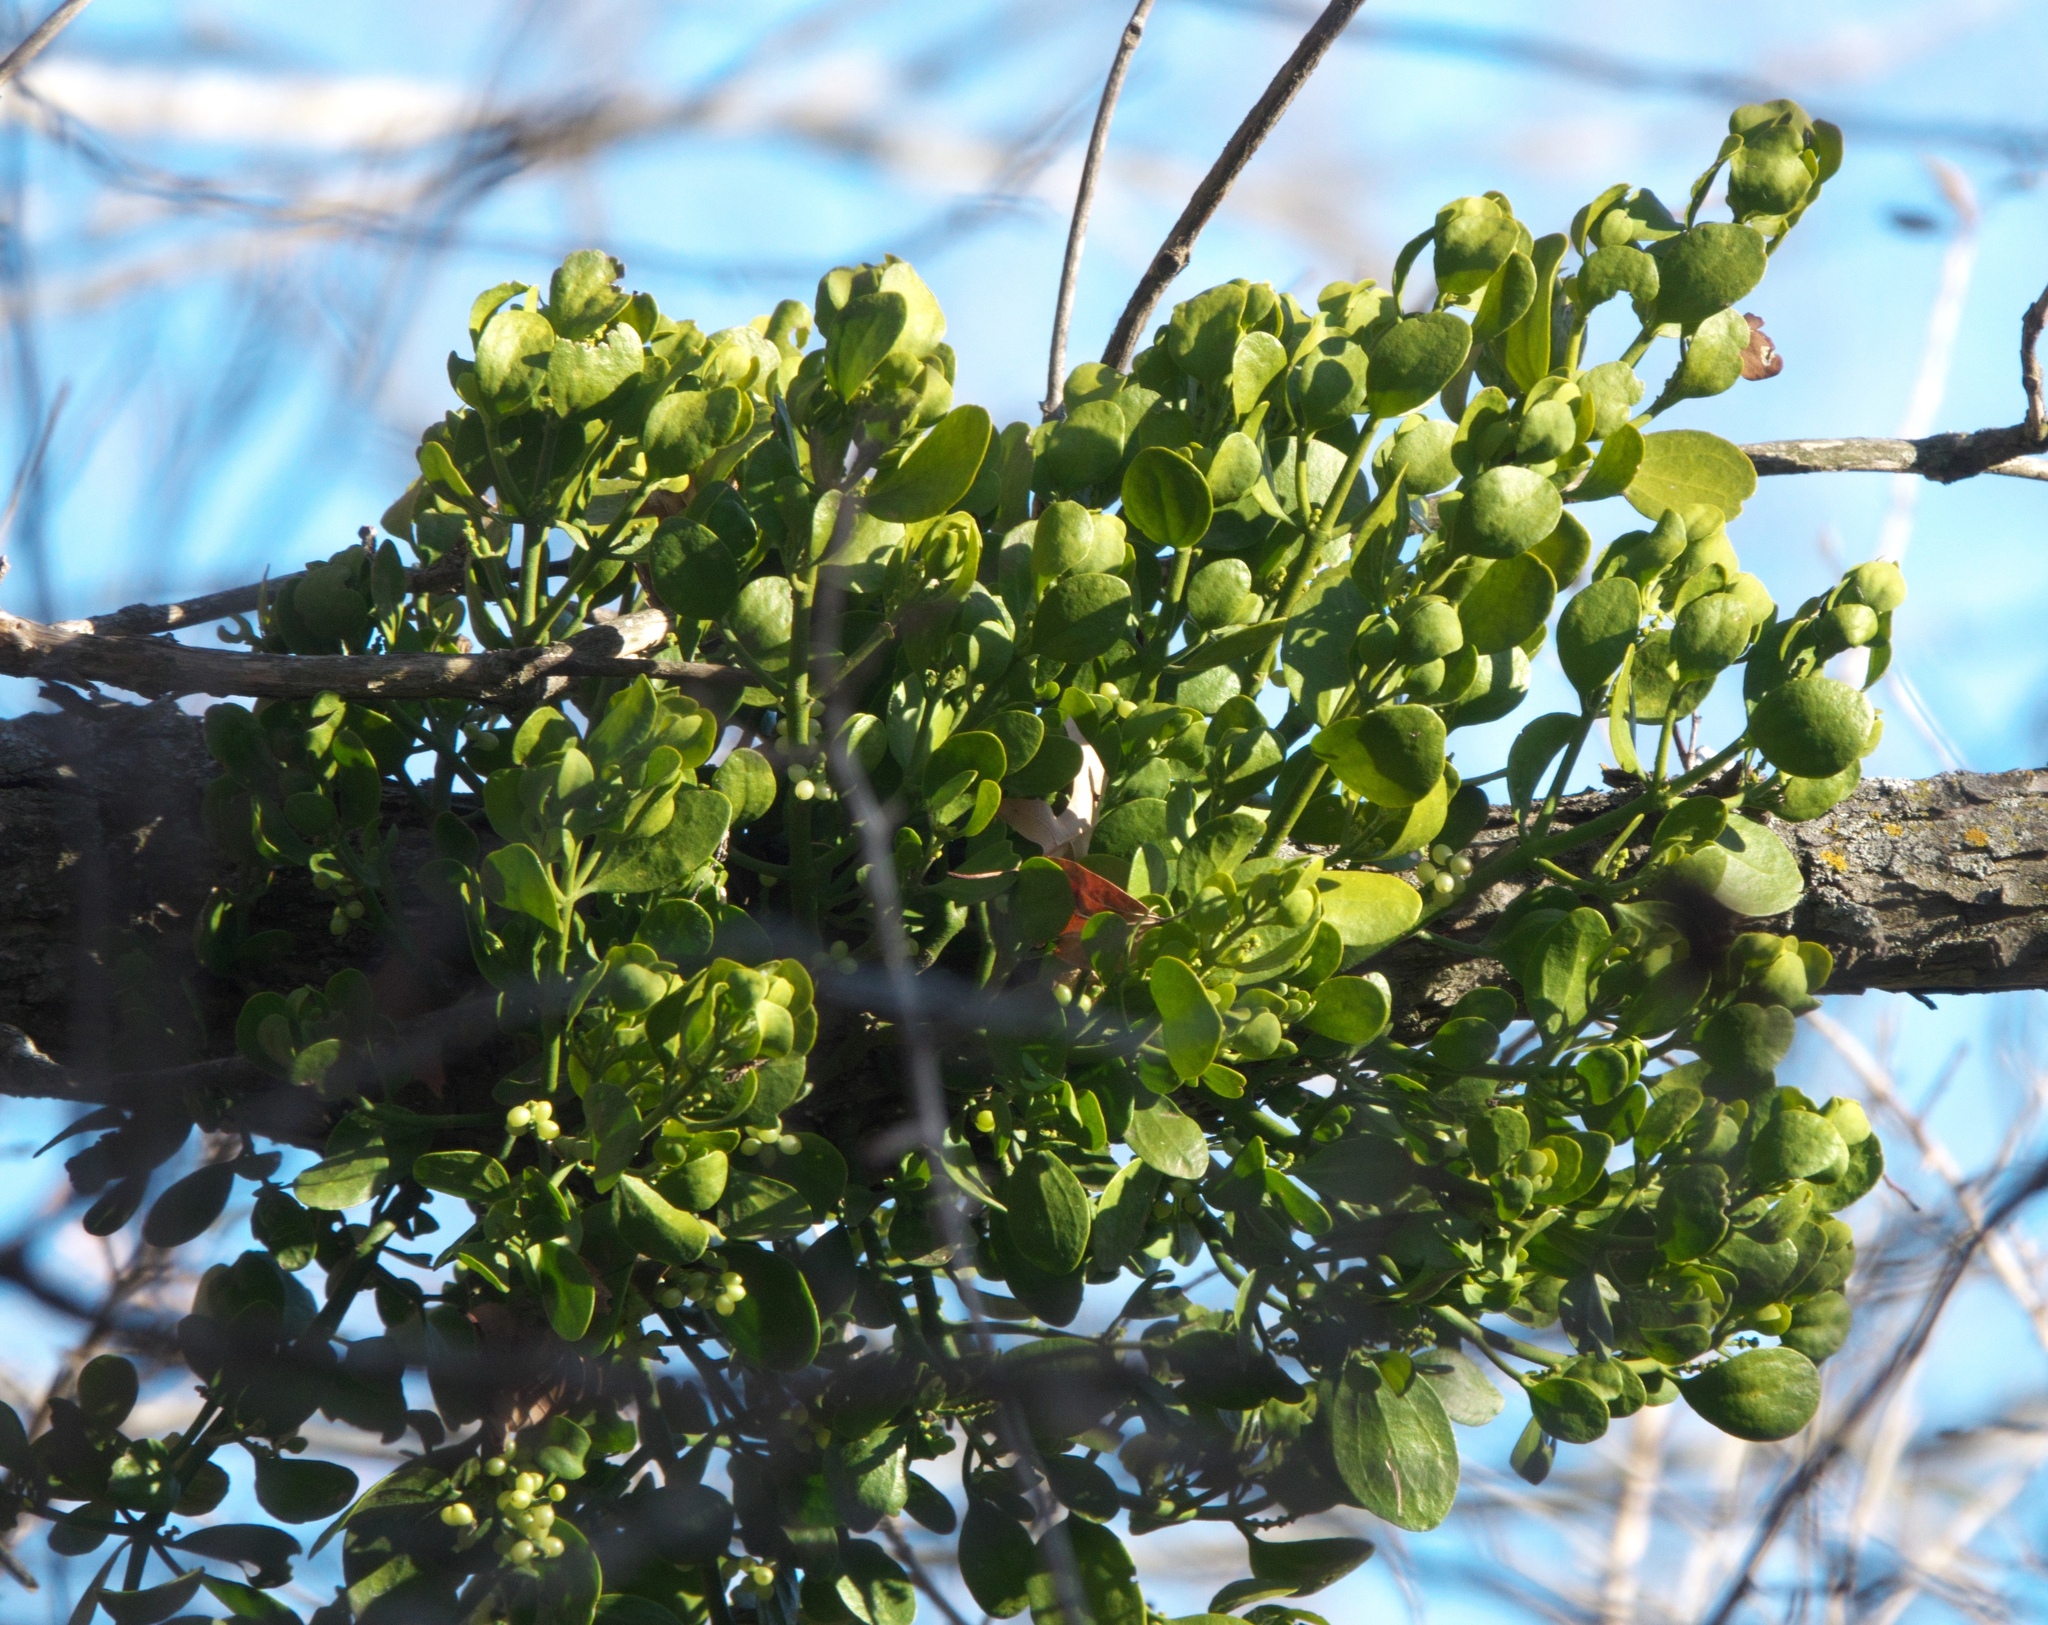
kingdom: Plantae
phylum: Tracheophyta
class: Magnoliopsida
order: Santalales
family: Viscaceae
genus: Phoradendron
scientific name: Phoradendron leucarpum
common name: Pacific mistletoe
